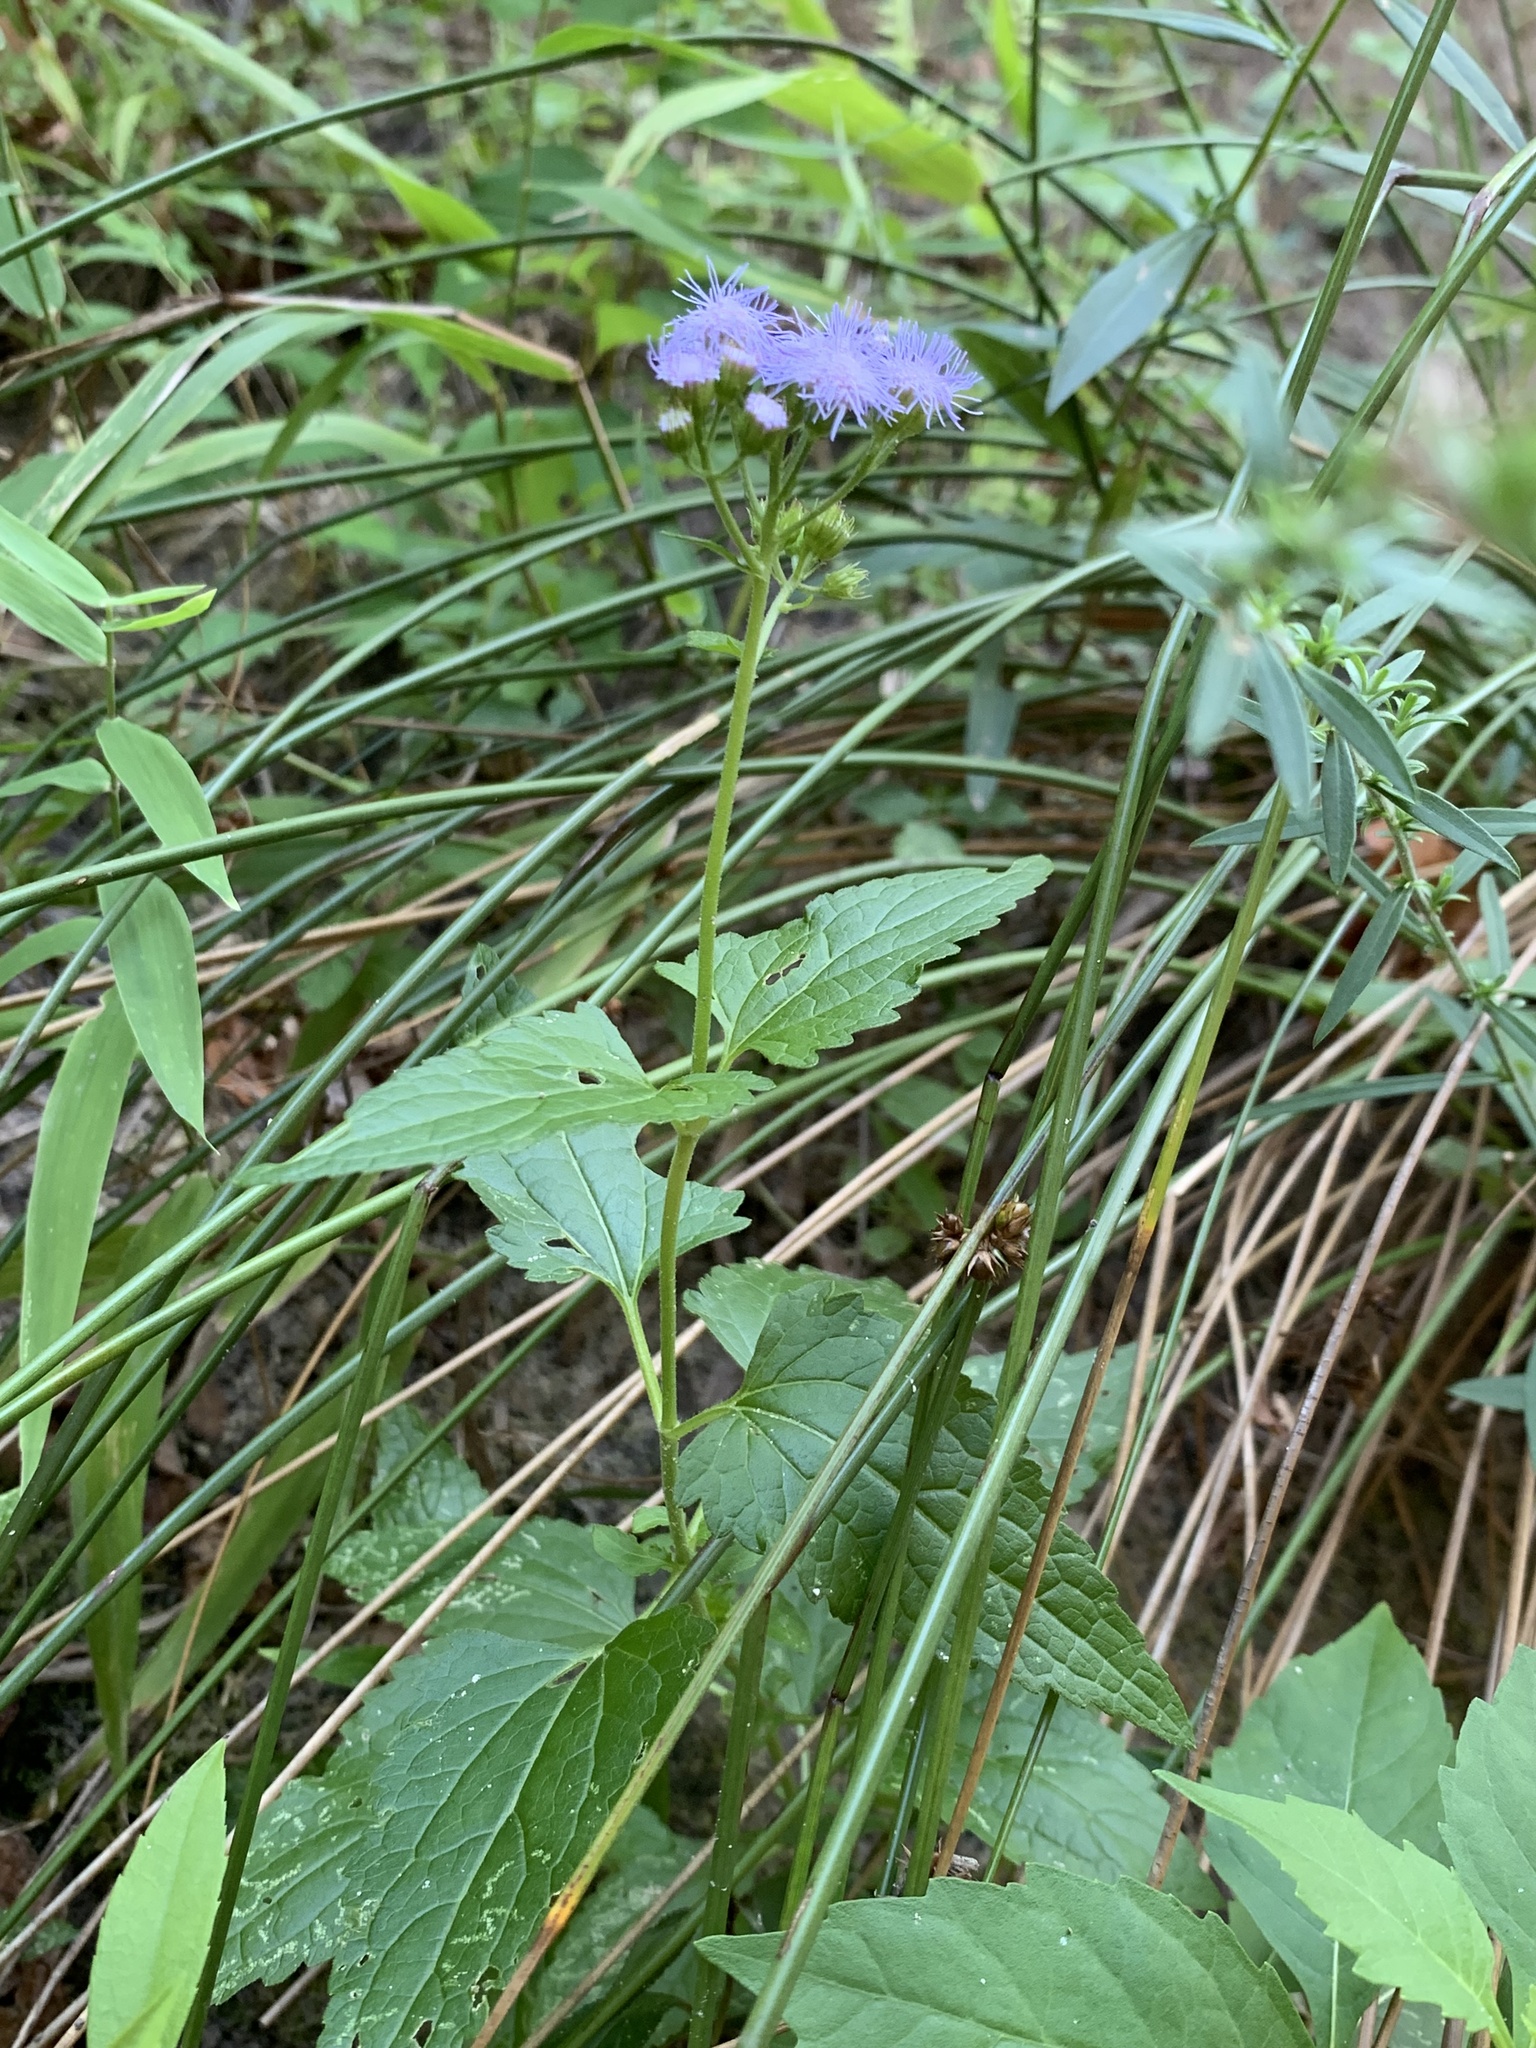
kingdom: Plantae
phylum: Tracheophyta
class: Magnoliopsida
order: Asterales
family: Asteraceae
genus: Conoclinium
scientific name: Conoclinium coelestinum
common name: Blue mistflower
